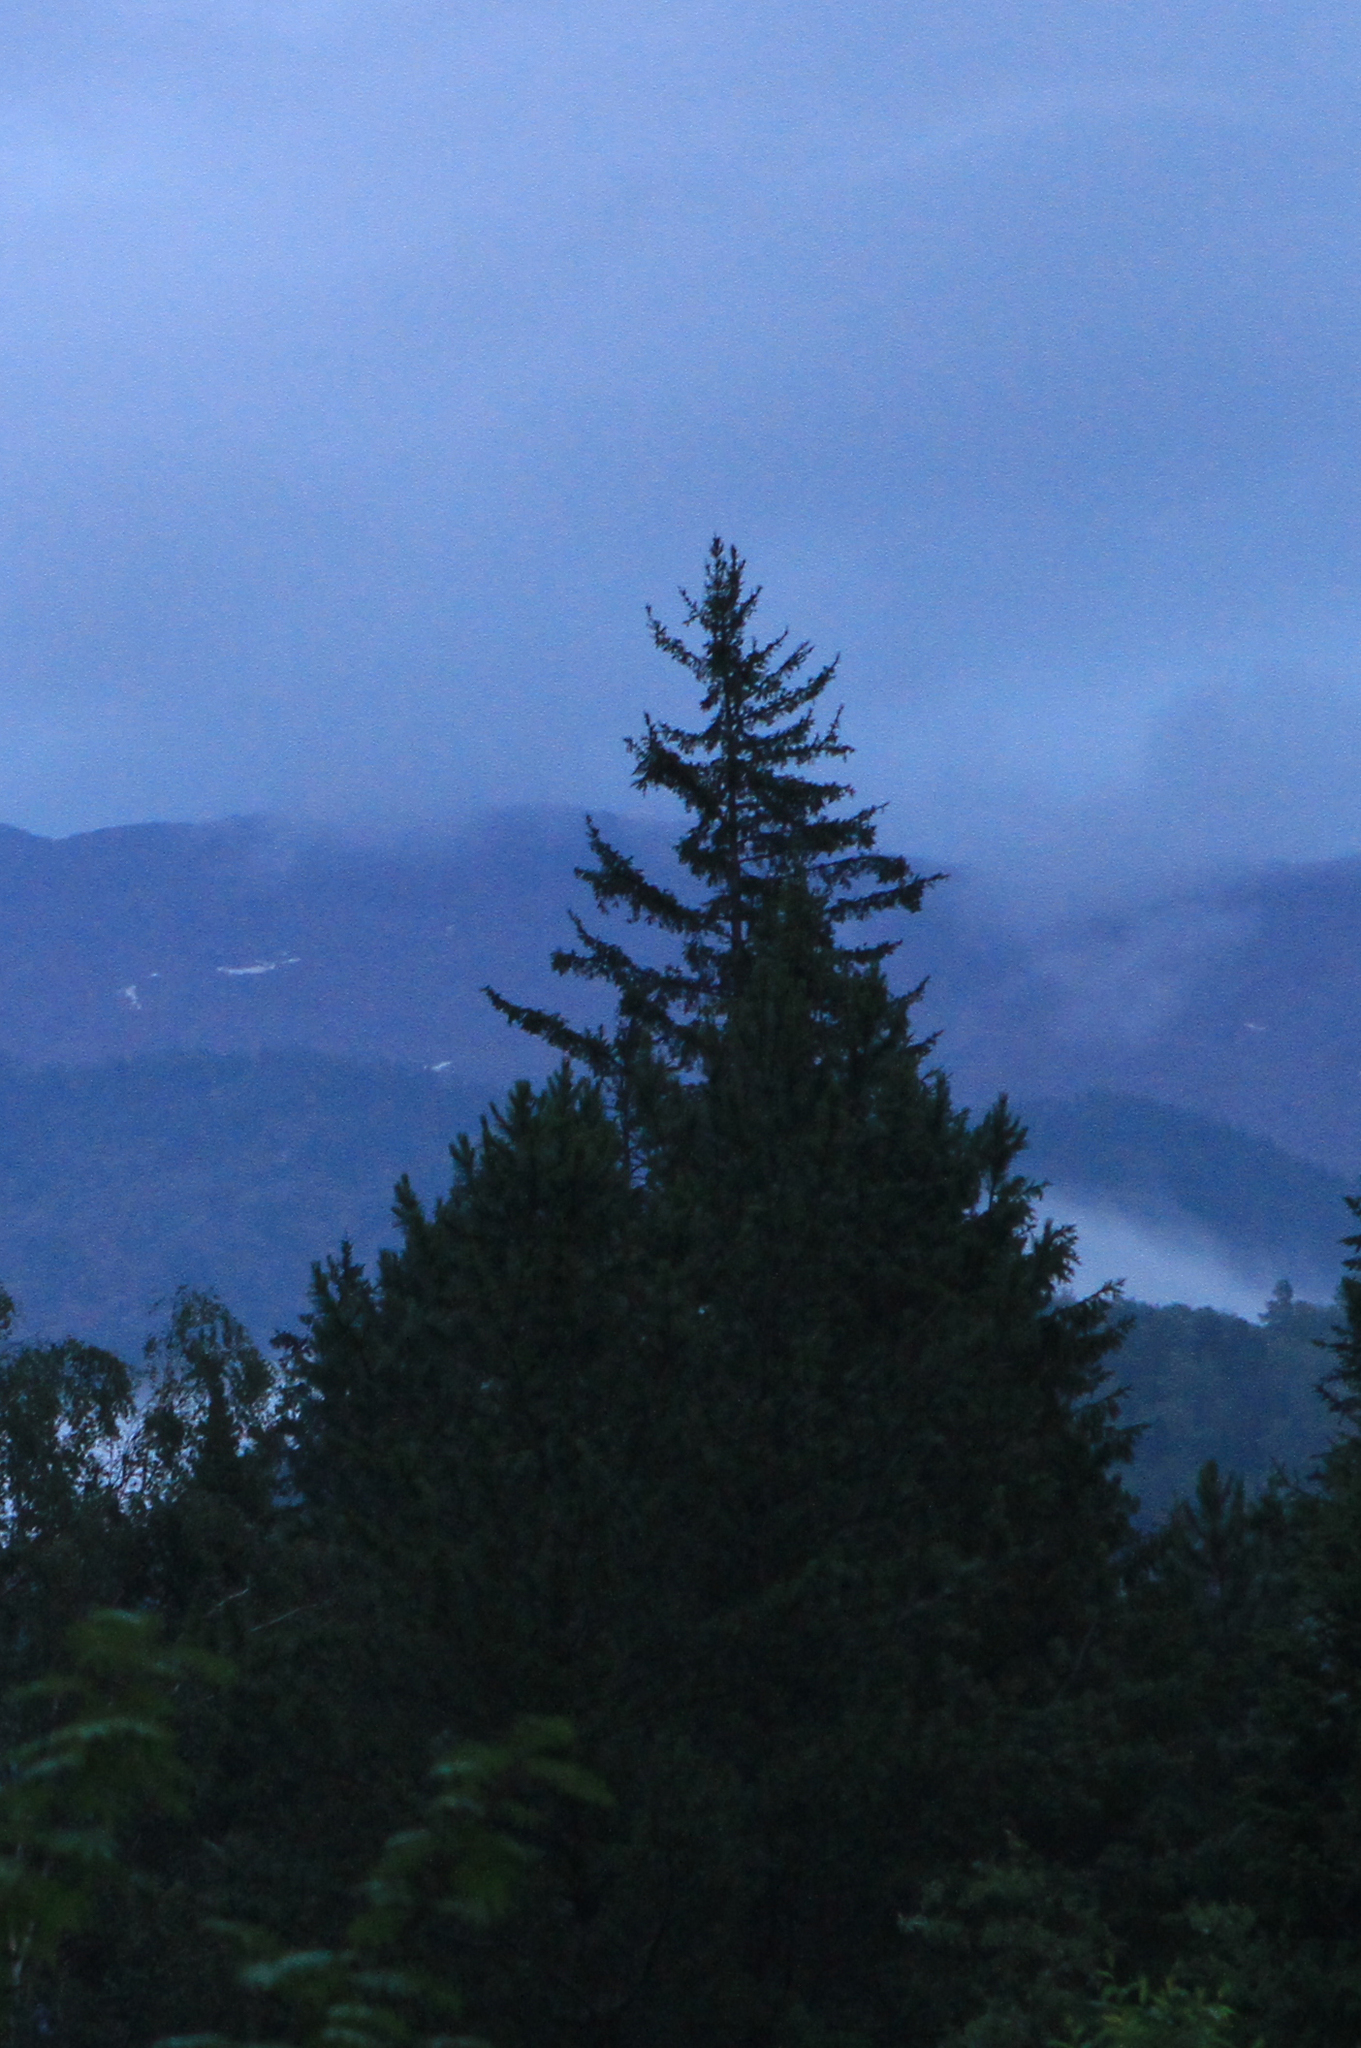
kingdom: Plantae
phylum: Tracheophyta
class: Pinopsida
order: Pinales
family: Pinaceae
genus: Picea
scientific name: Picea obovata
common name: Siberian spruce
